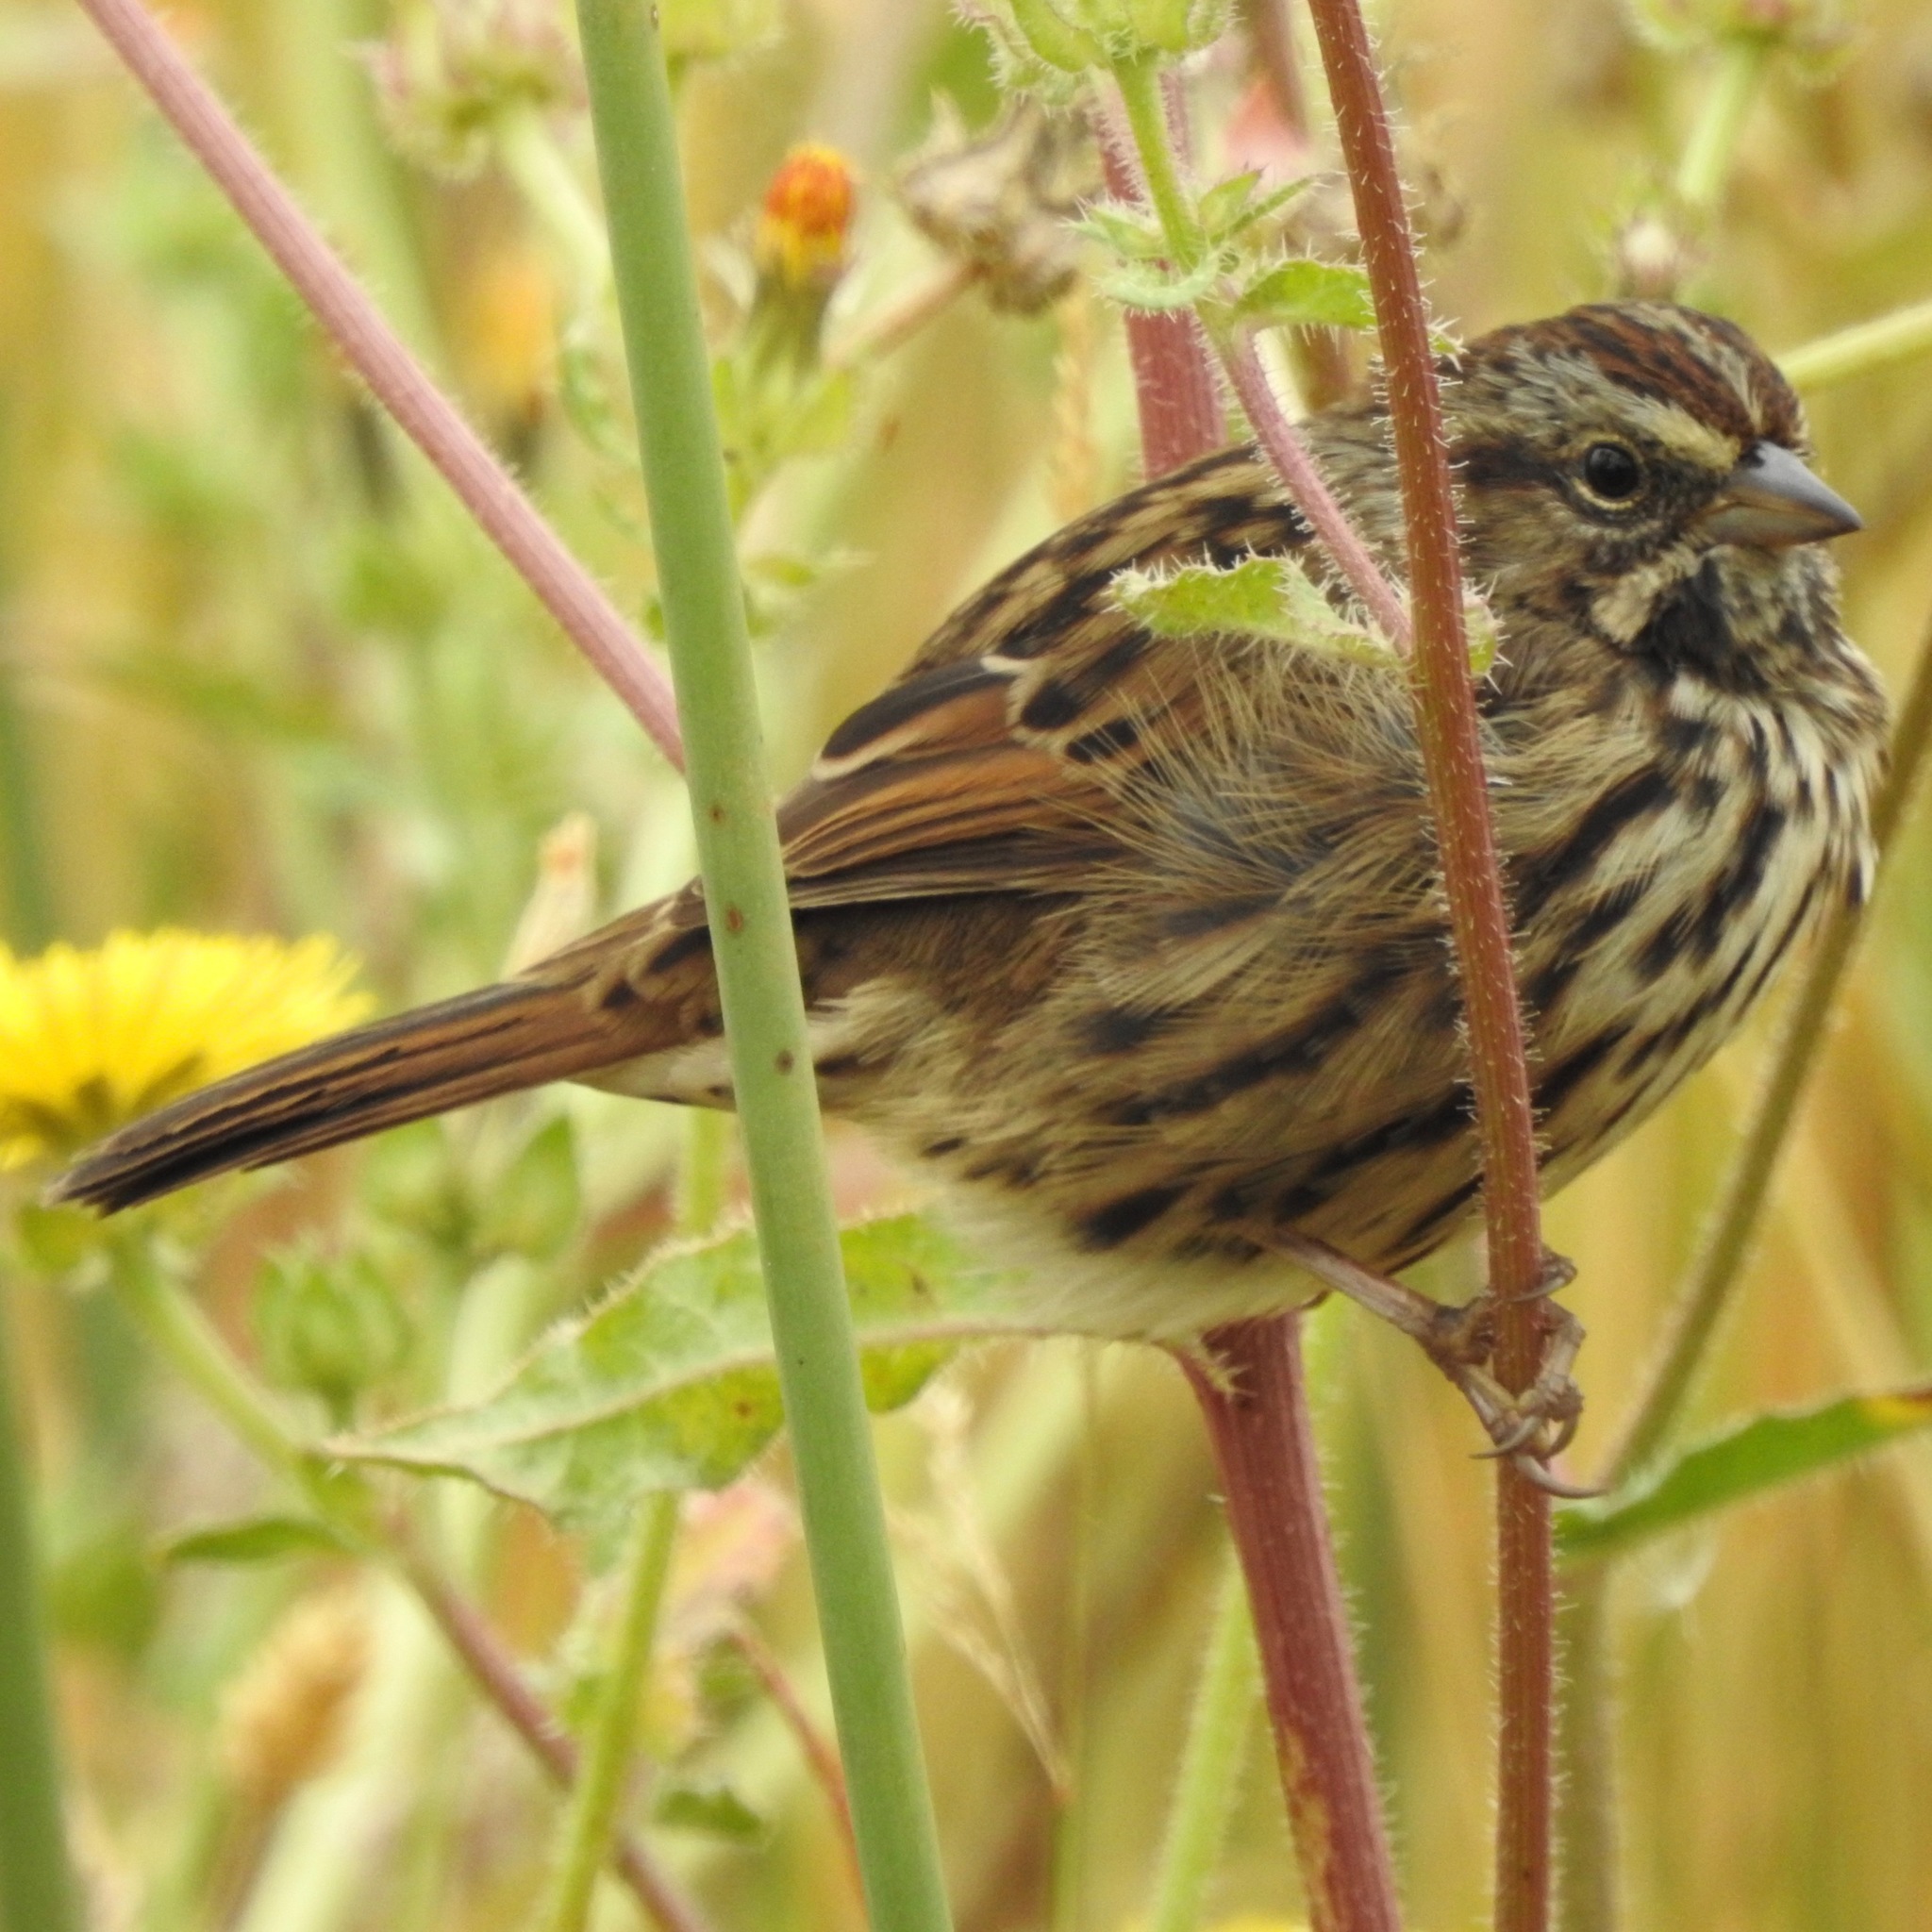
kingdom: Animalia
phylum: Chordata
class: Aves
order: Passeriformes
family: Passerellidae
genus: Melospiza
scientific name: Melospiza melodia
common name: Song sparrow
